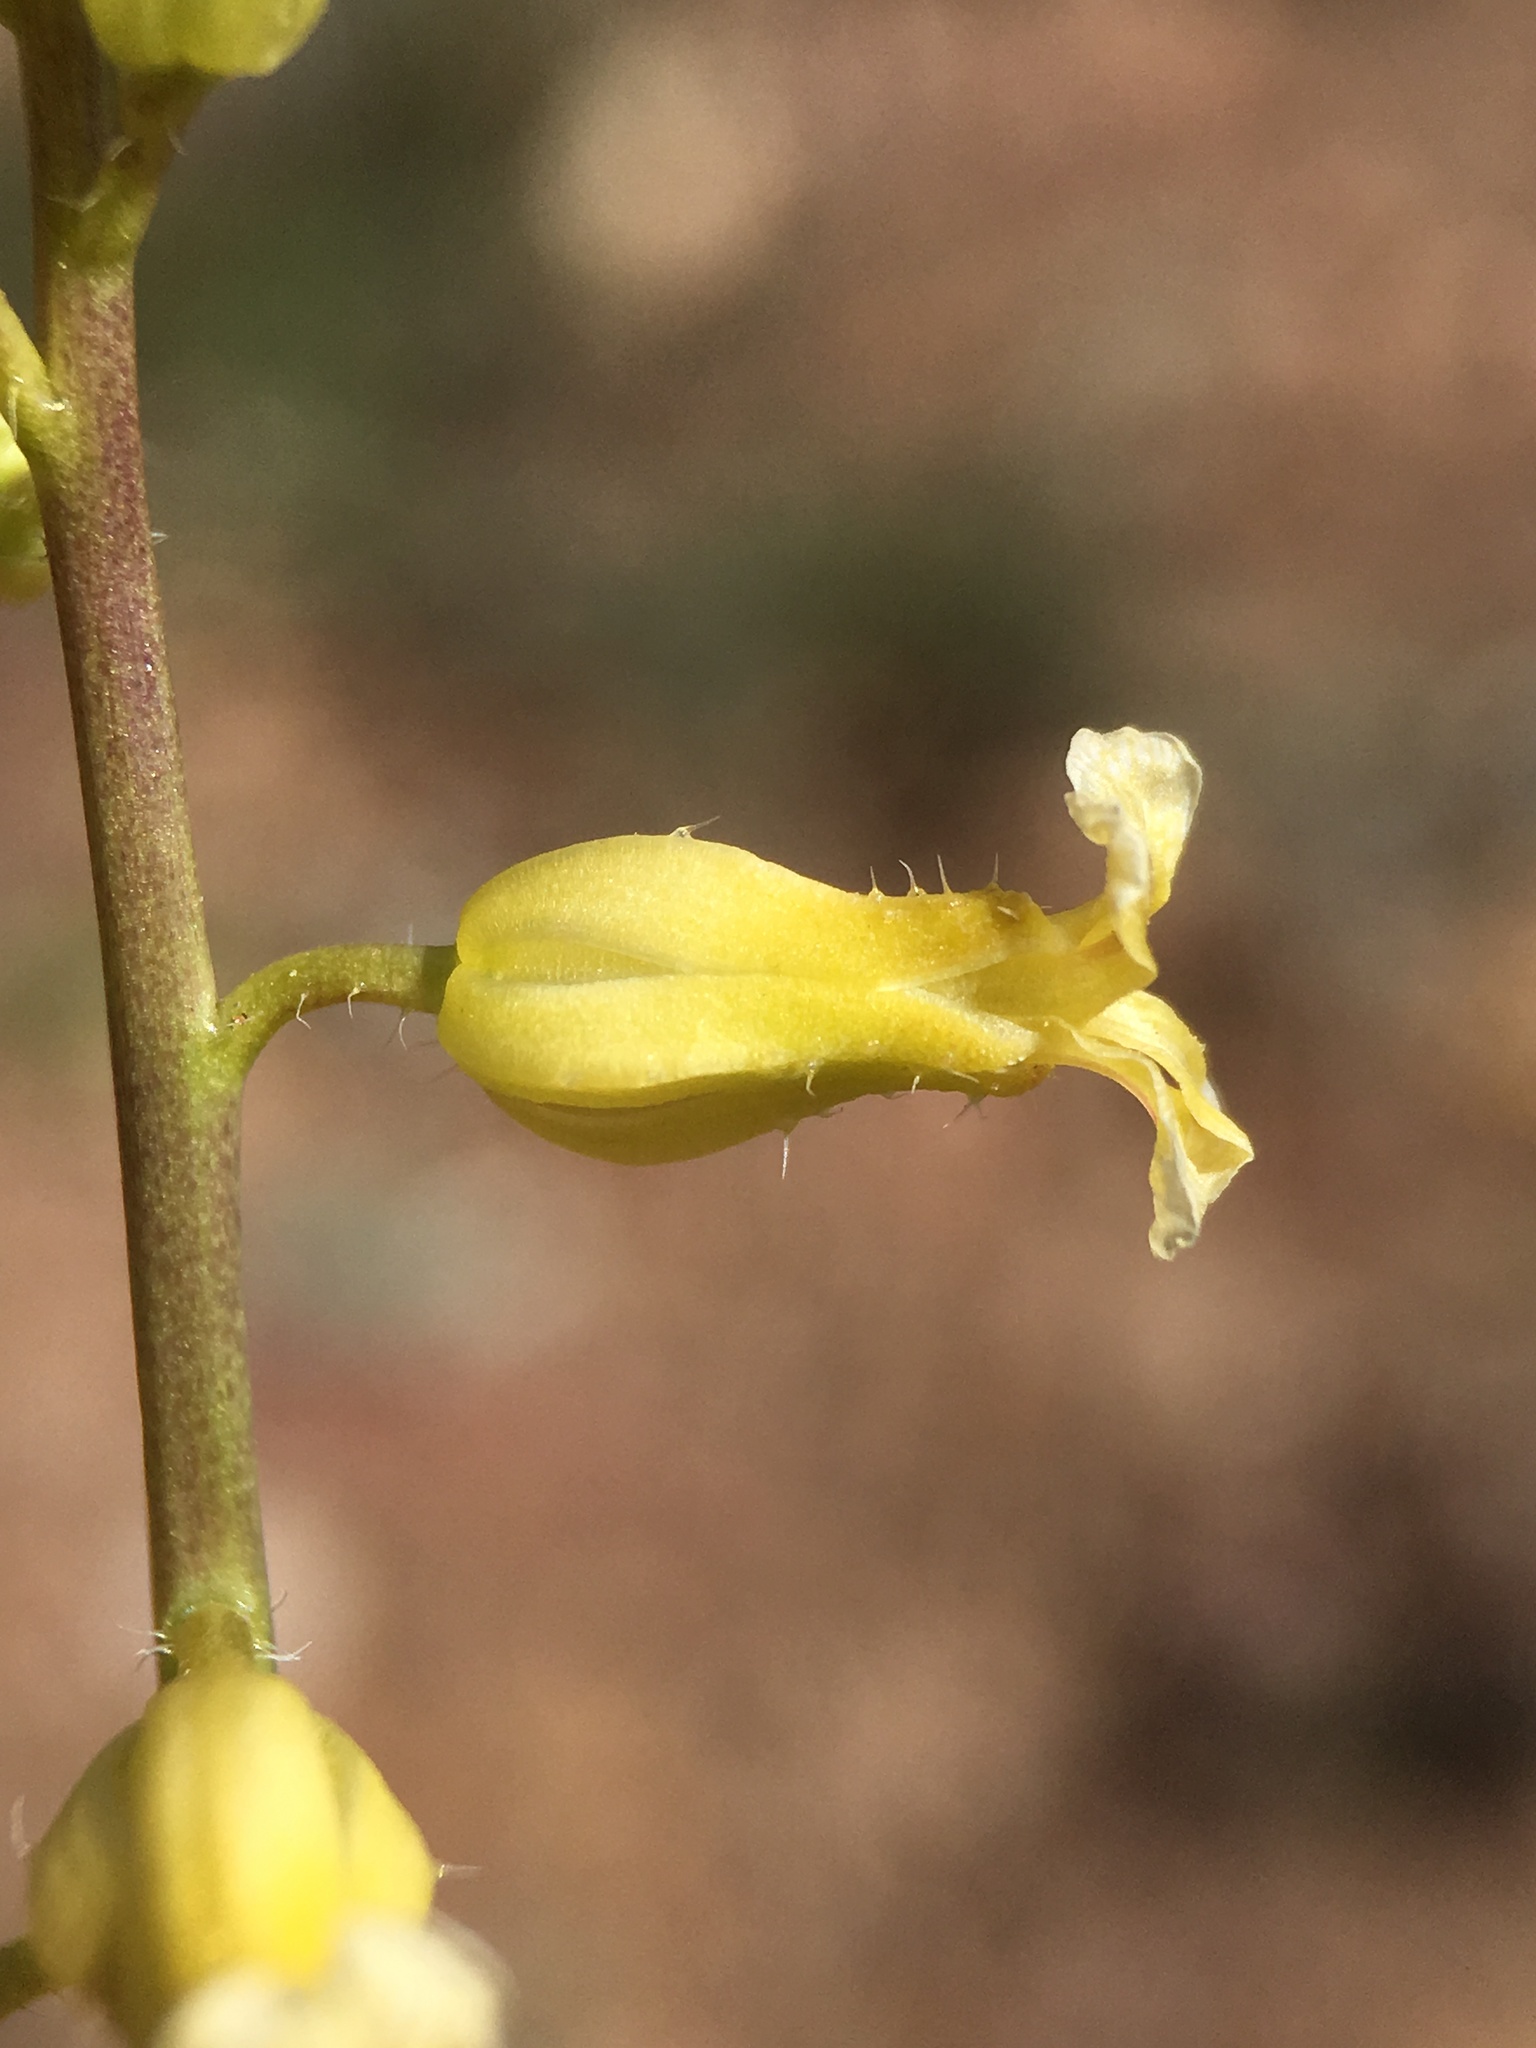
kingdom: Plantae
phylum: Tracheophyta
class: Magnoliopsida
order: Brassicales
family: Brassicaceae
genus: Streptanthus
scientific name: Streptanthus simulans
